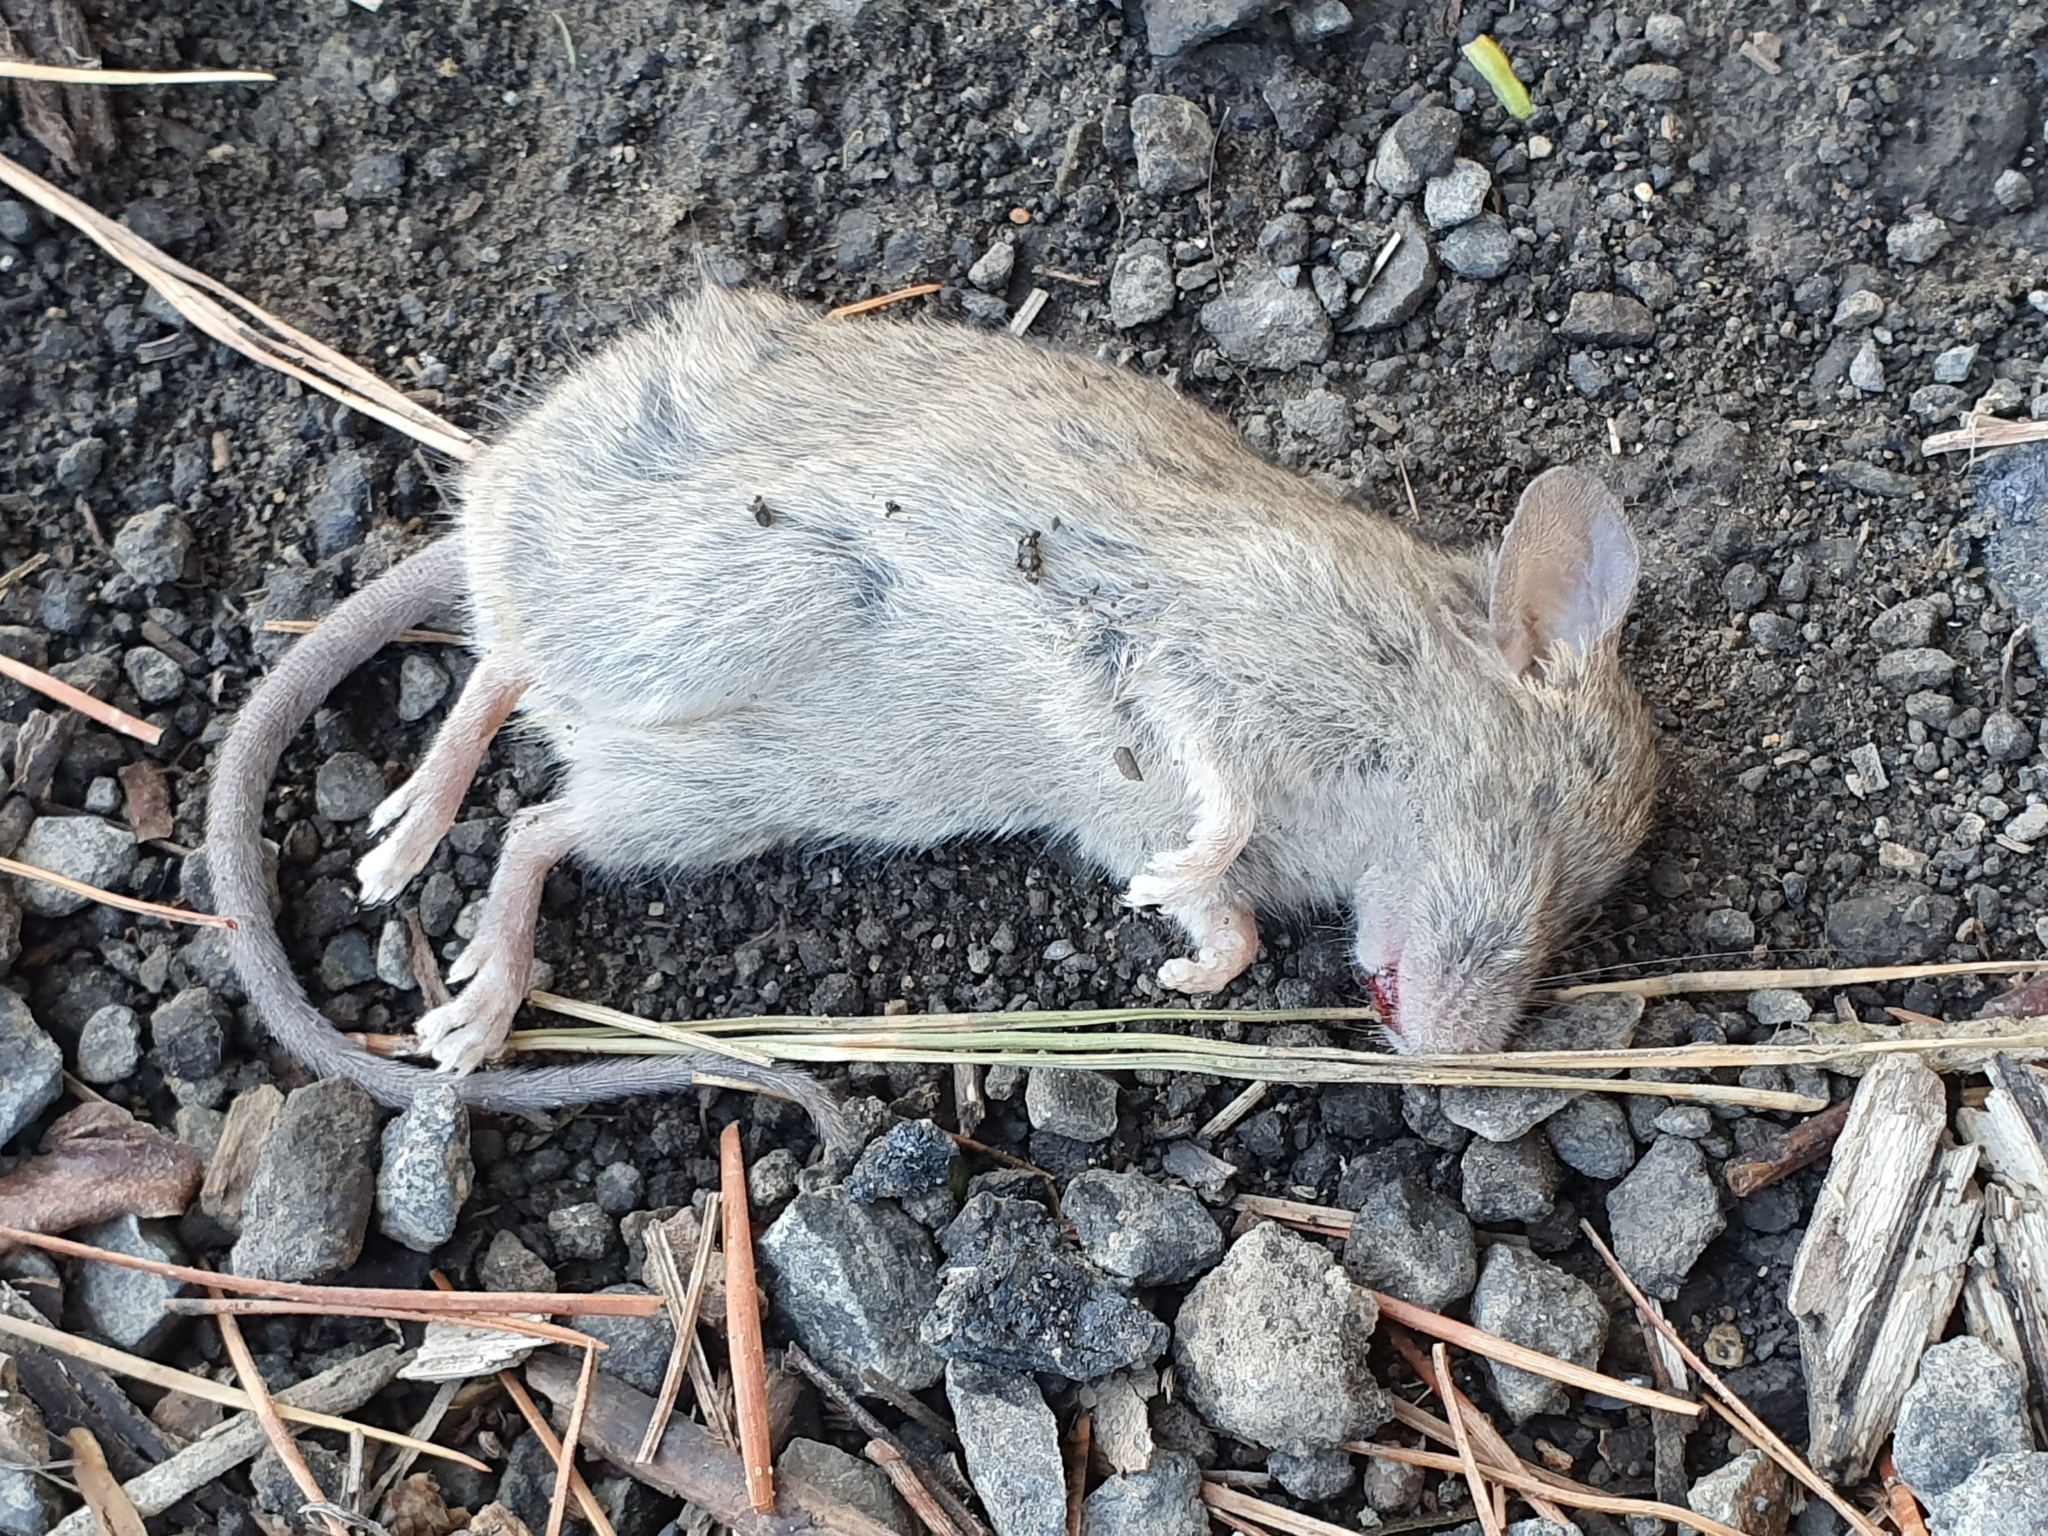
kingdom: Animalia
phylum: Chordata
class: Mammalia
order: Rodentia
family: Muridae
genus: Mus
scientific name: Mus musculus
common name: House mouse
